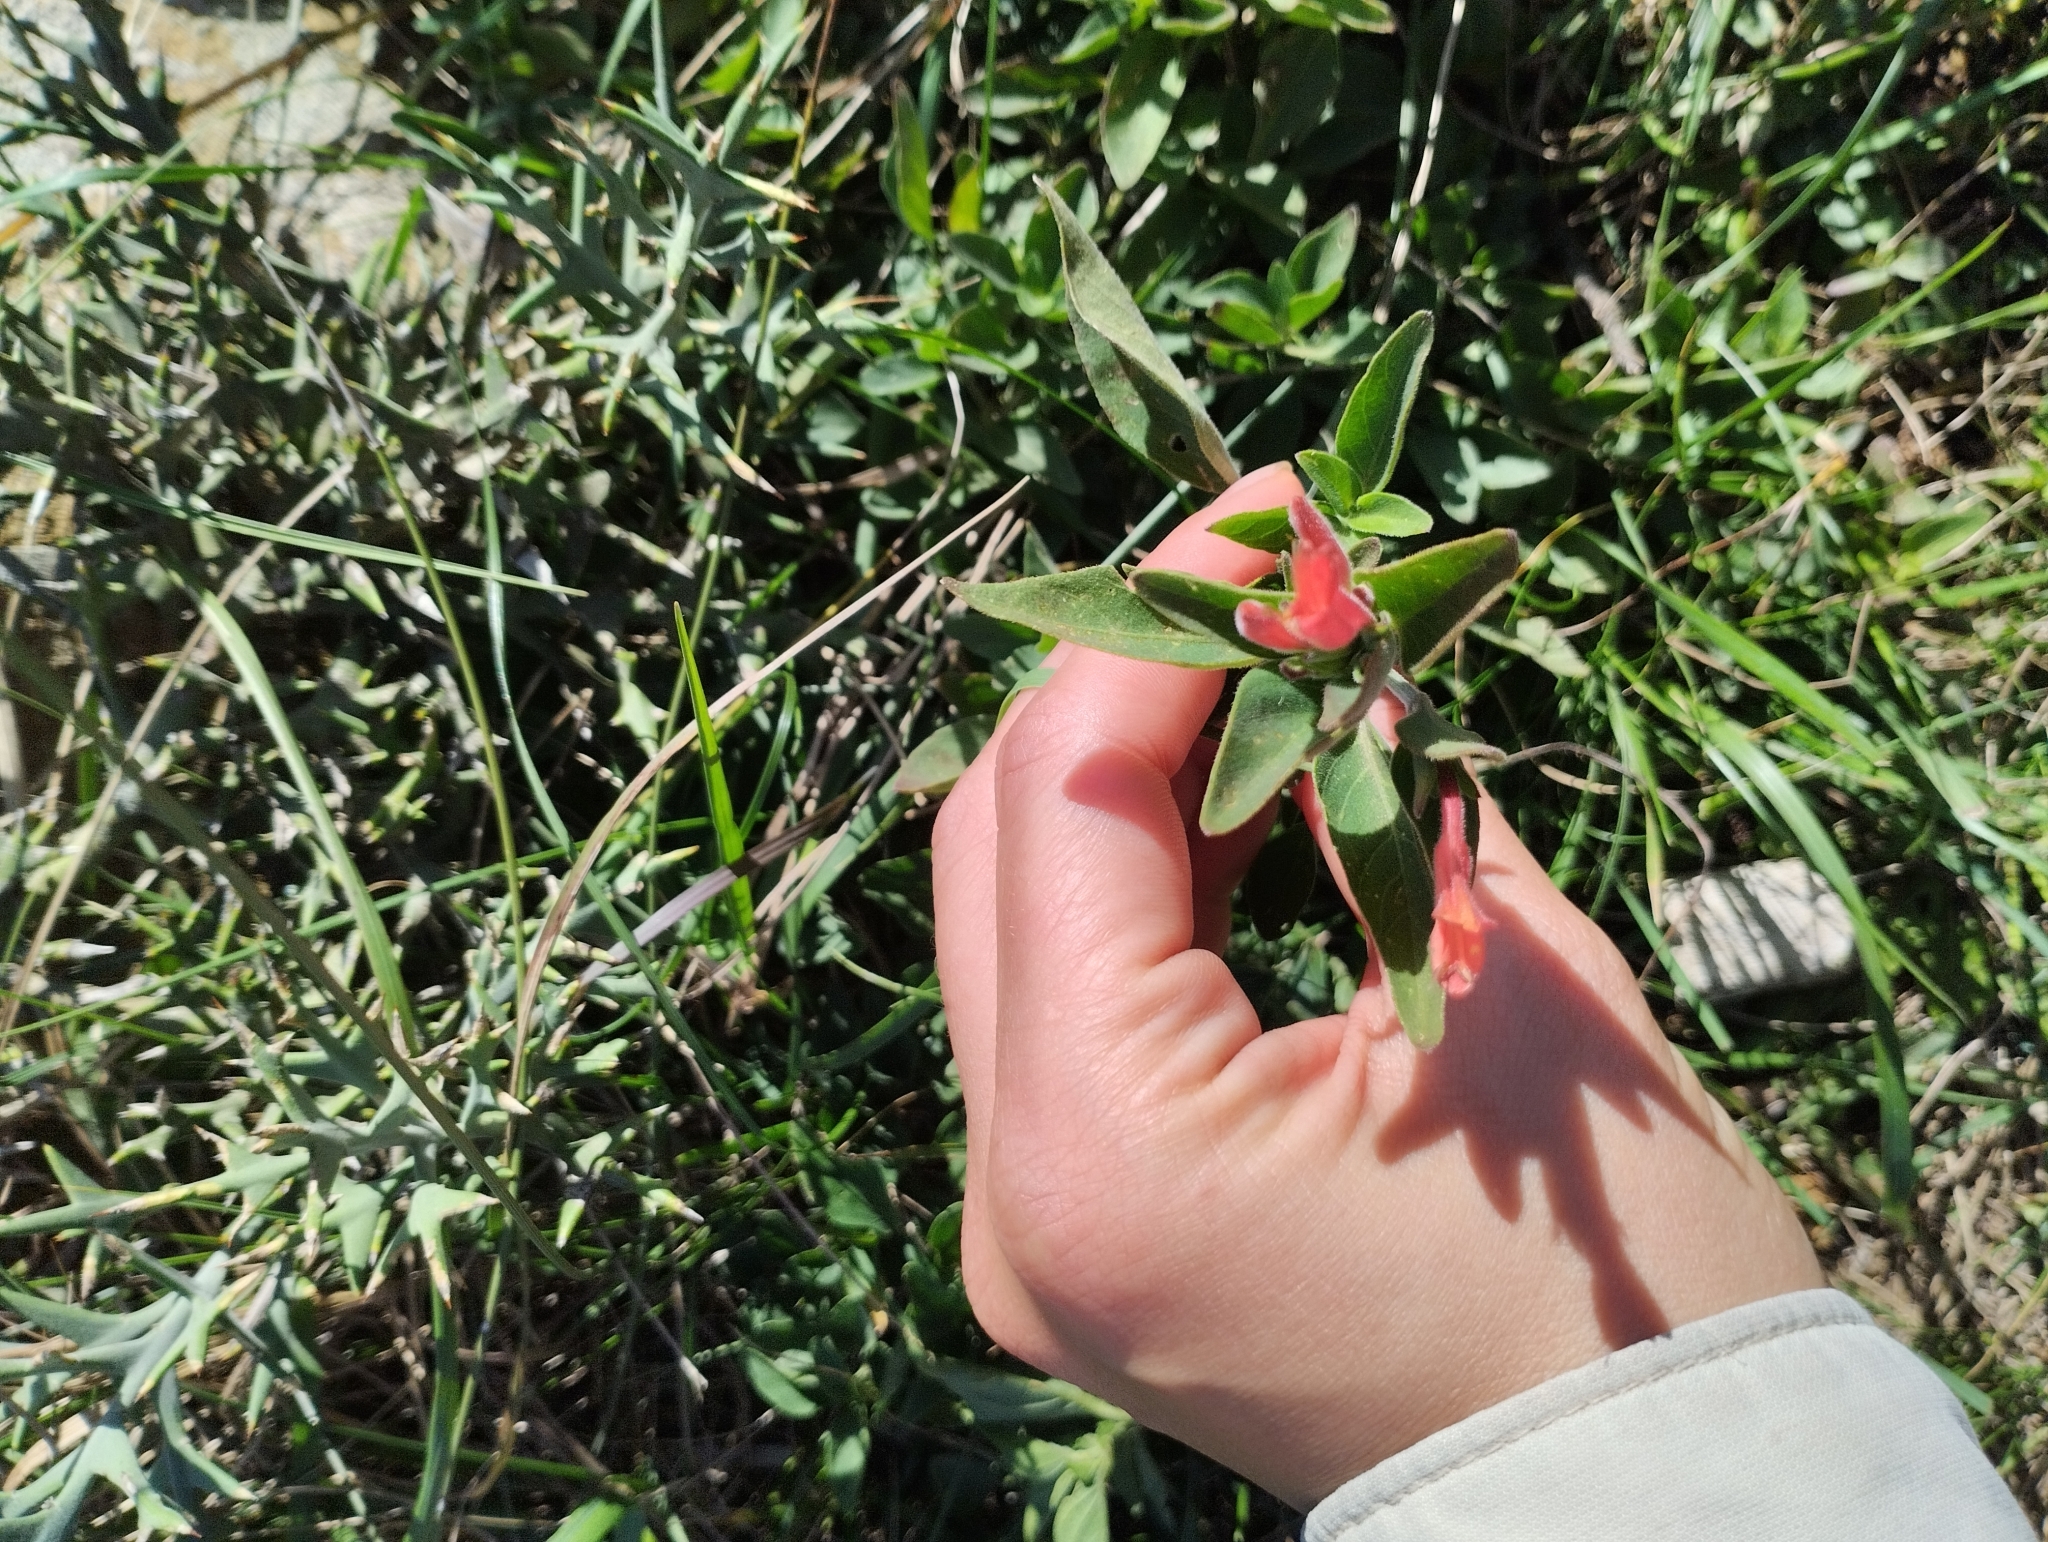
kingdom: Plantae
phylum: Tracheophyta
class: Magnoliopsida
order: Lamiales
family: Acanthaceae
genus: Dicliptera
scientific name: Dicliptera squarrosa
